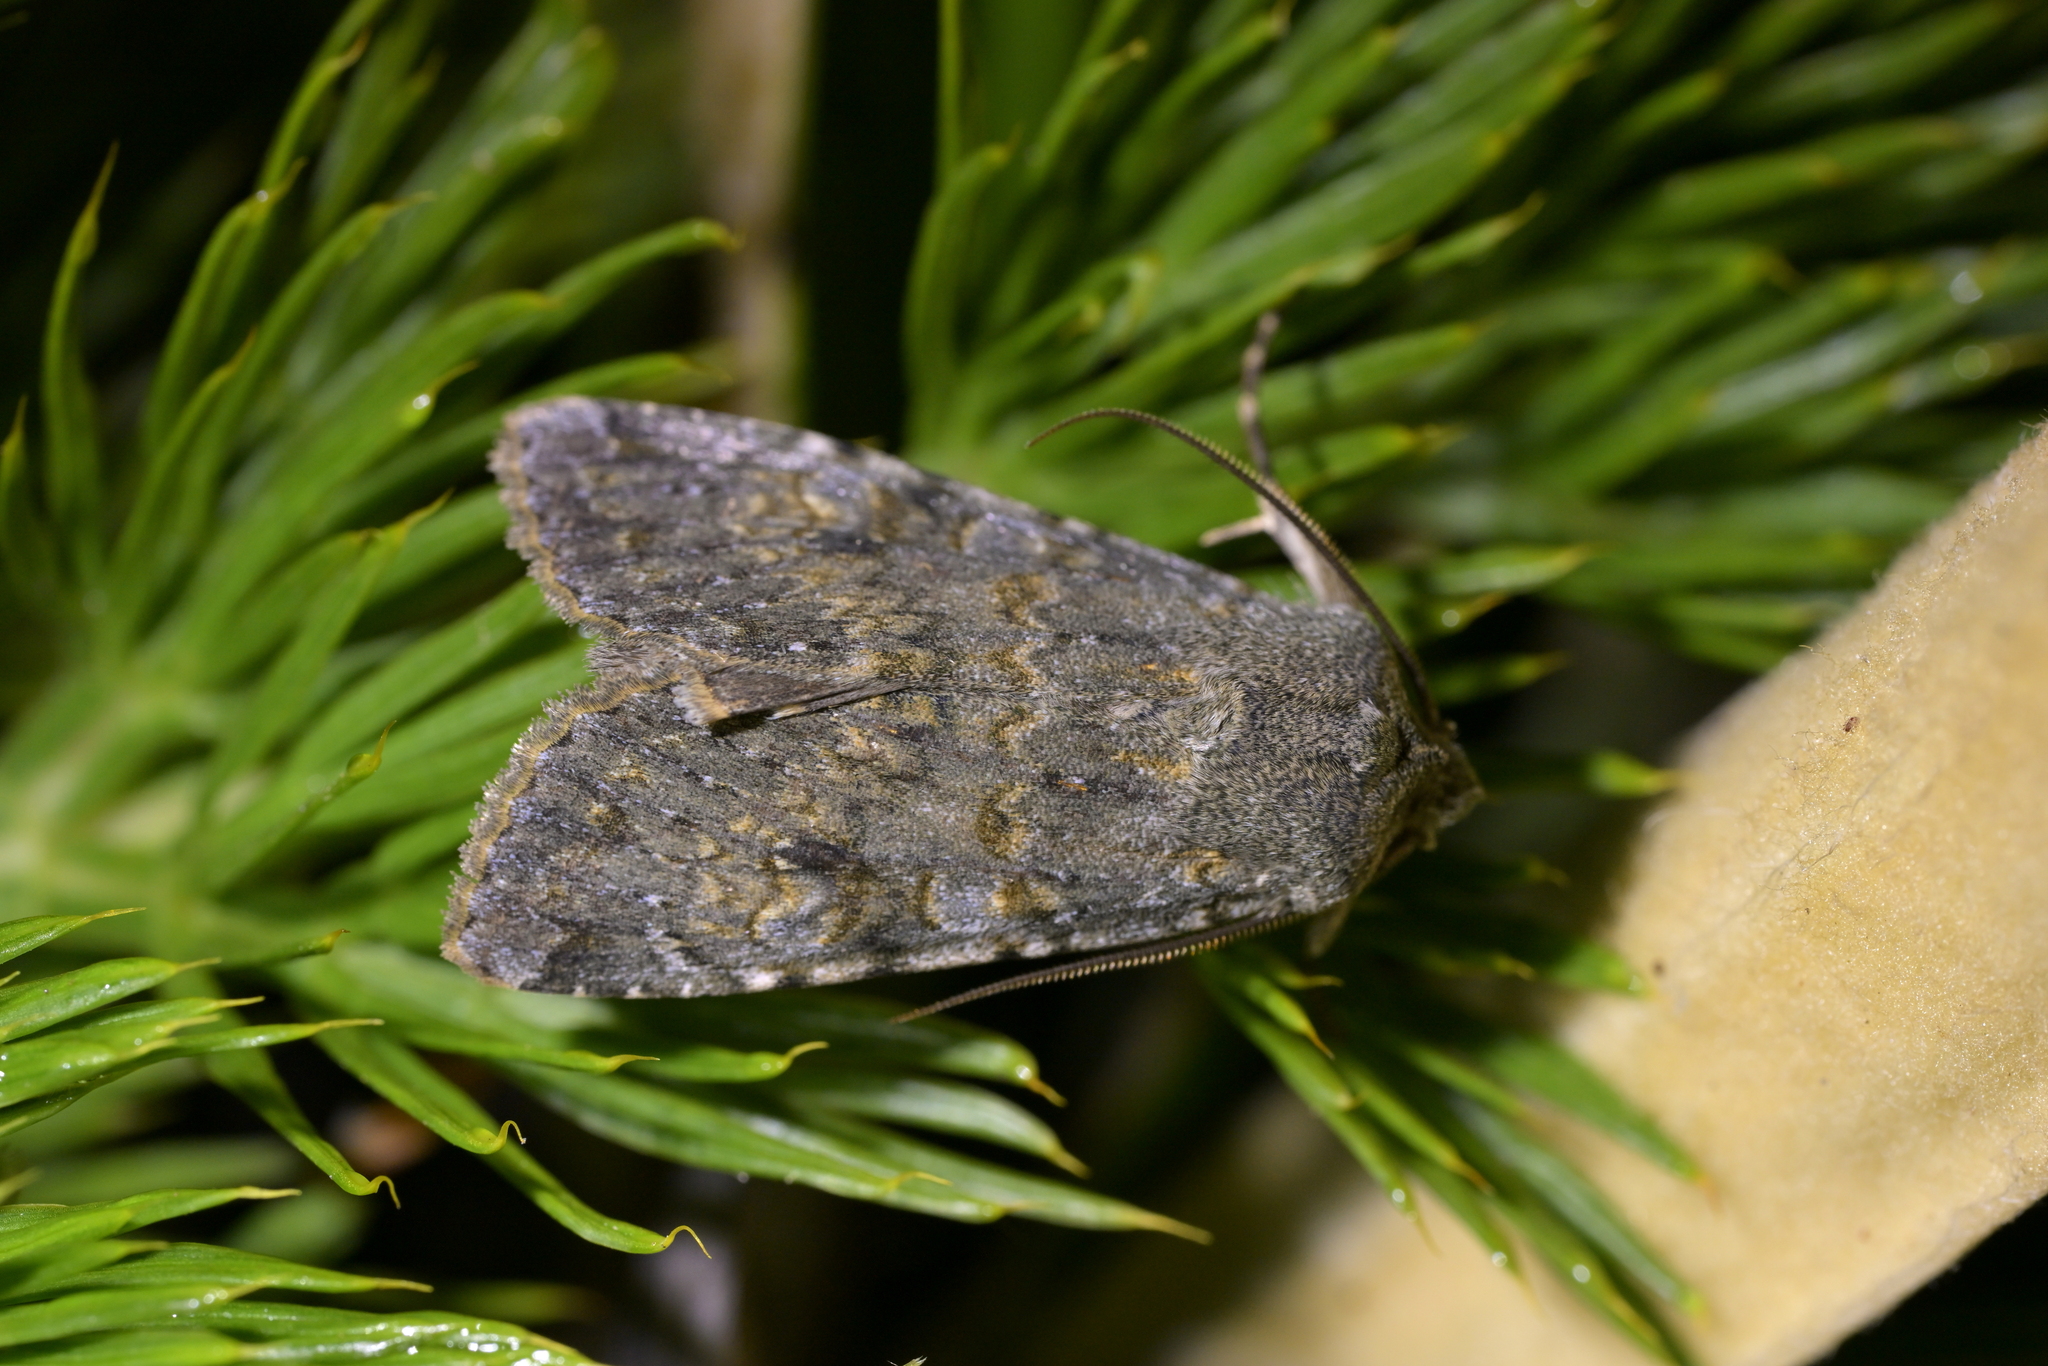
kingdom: Animalia
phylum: Arthropoda
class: Insecta
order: Lepidoptera
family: Noctuidae
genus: Ichneutica
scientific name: Ichneutica
